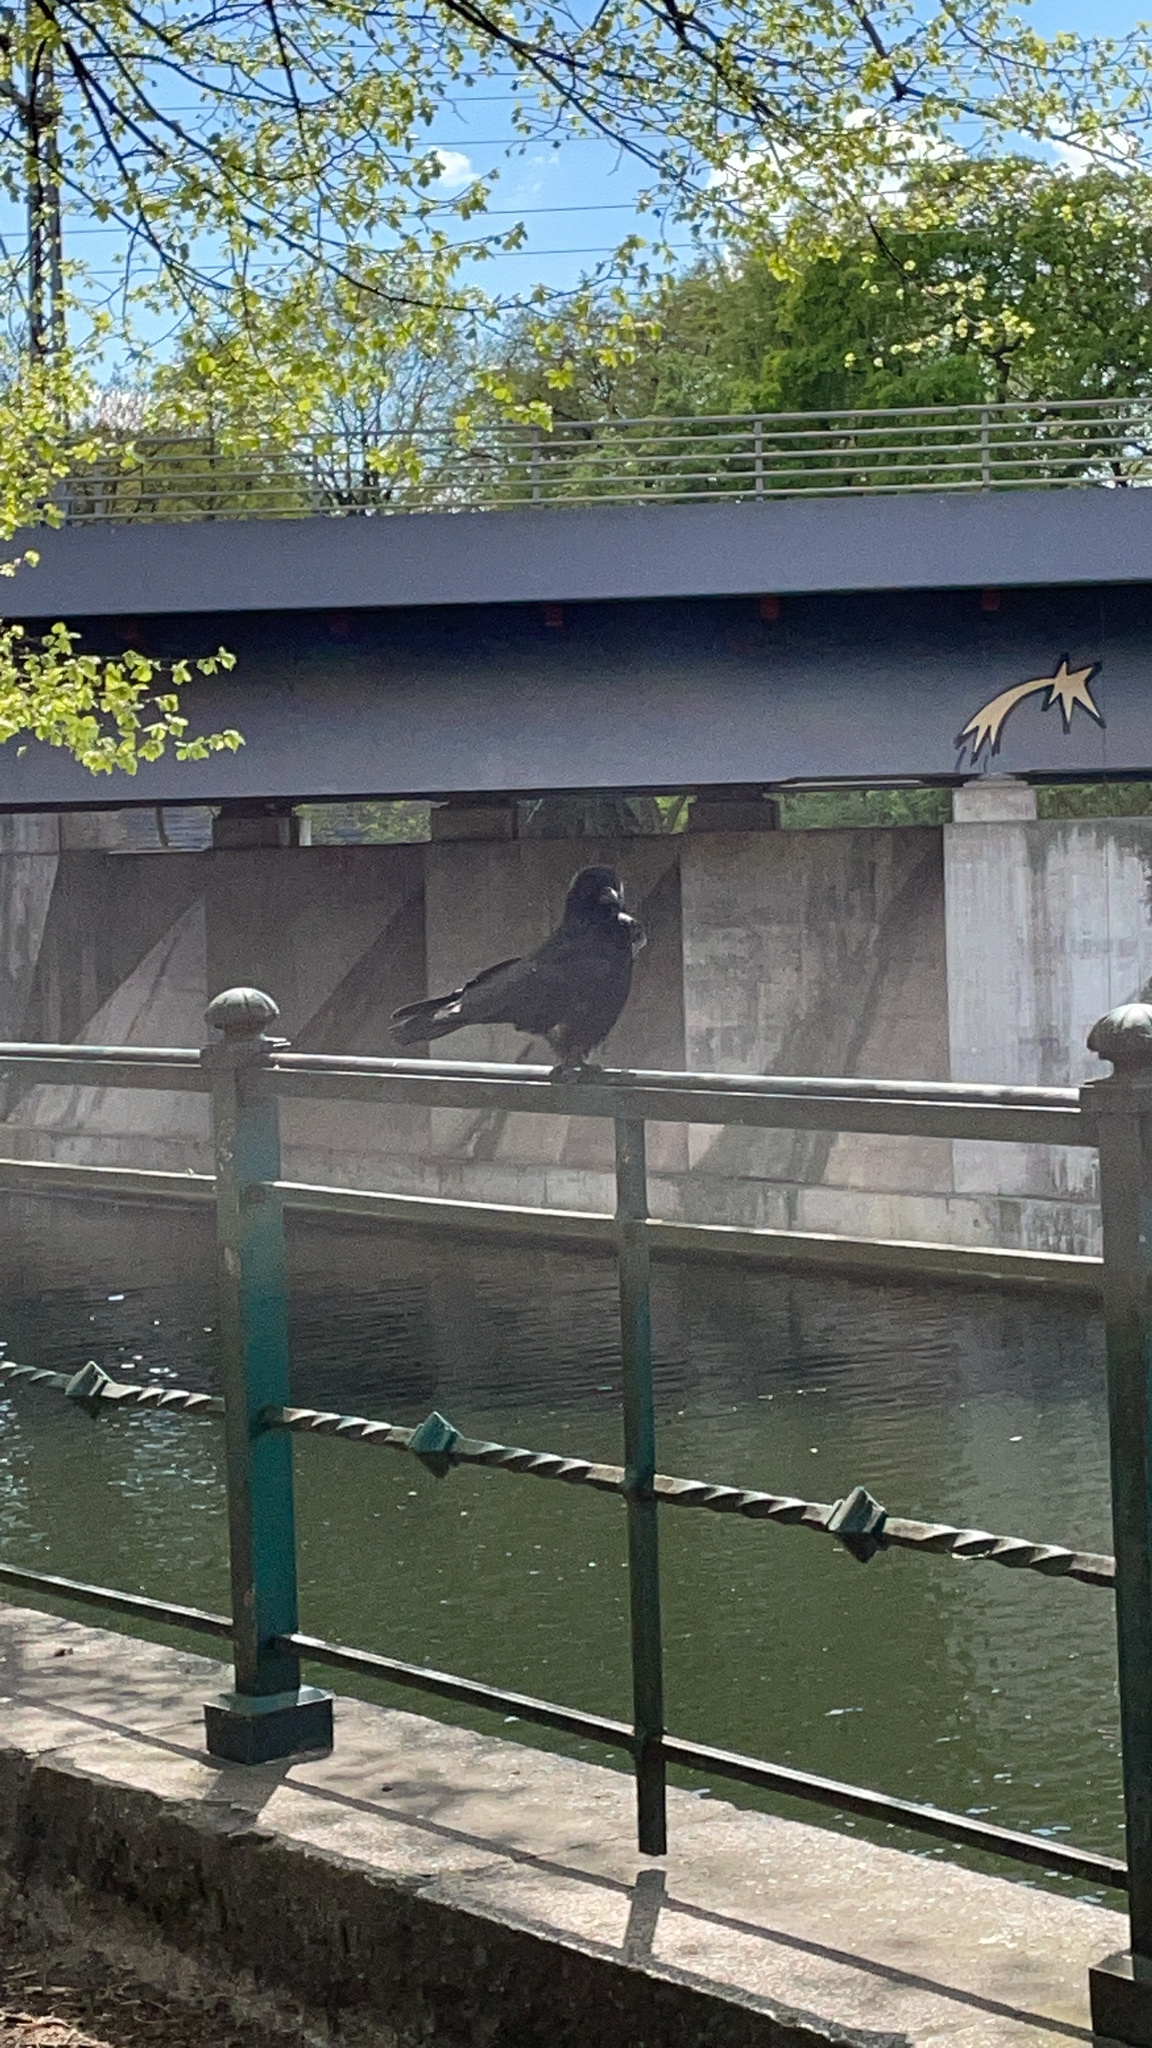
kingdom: Animalia
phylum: Chordata
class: Aves
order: Passeriformes
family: Corvidae
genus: Corvus
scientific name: Corvus corone
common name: Carrion crow
